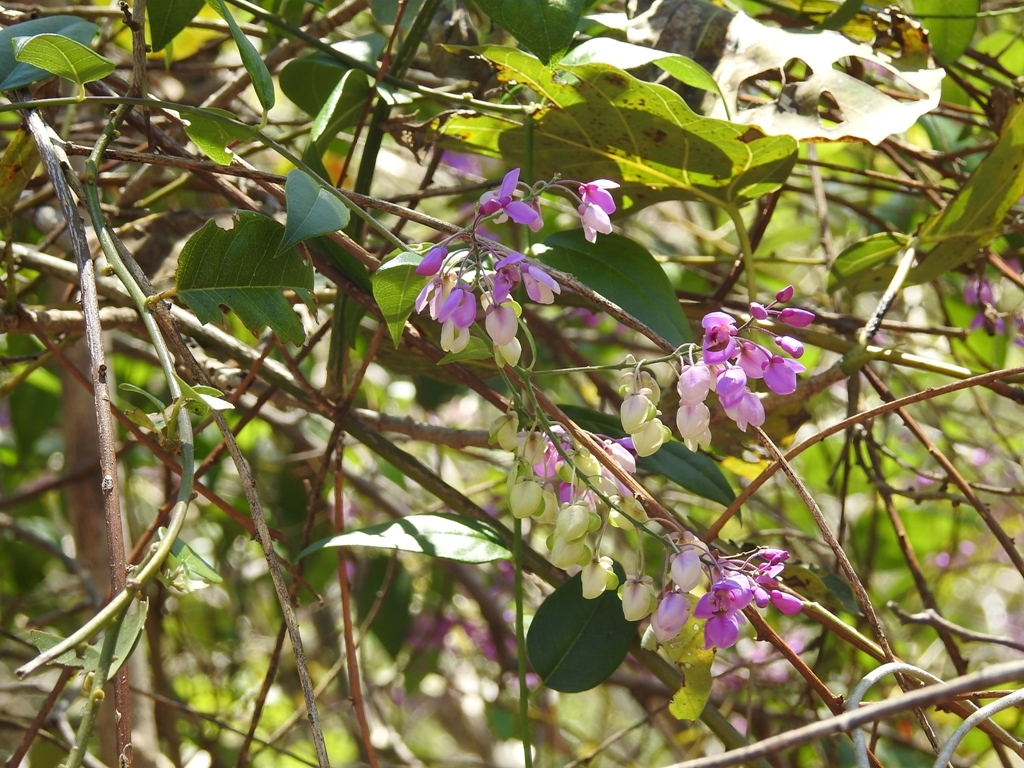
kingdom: Plantae
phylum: Tracheophyta
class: Magnoliopsida
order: Fabales
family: Polygalaceae
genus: Asemeia
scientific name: Asemeia floribunda
